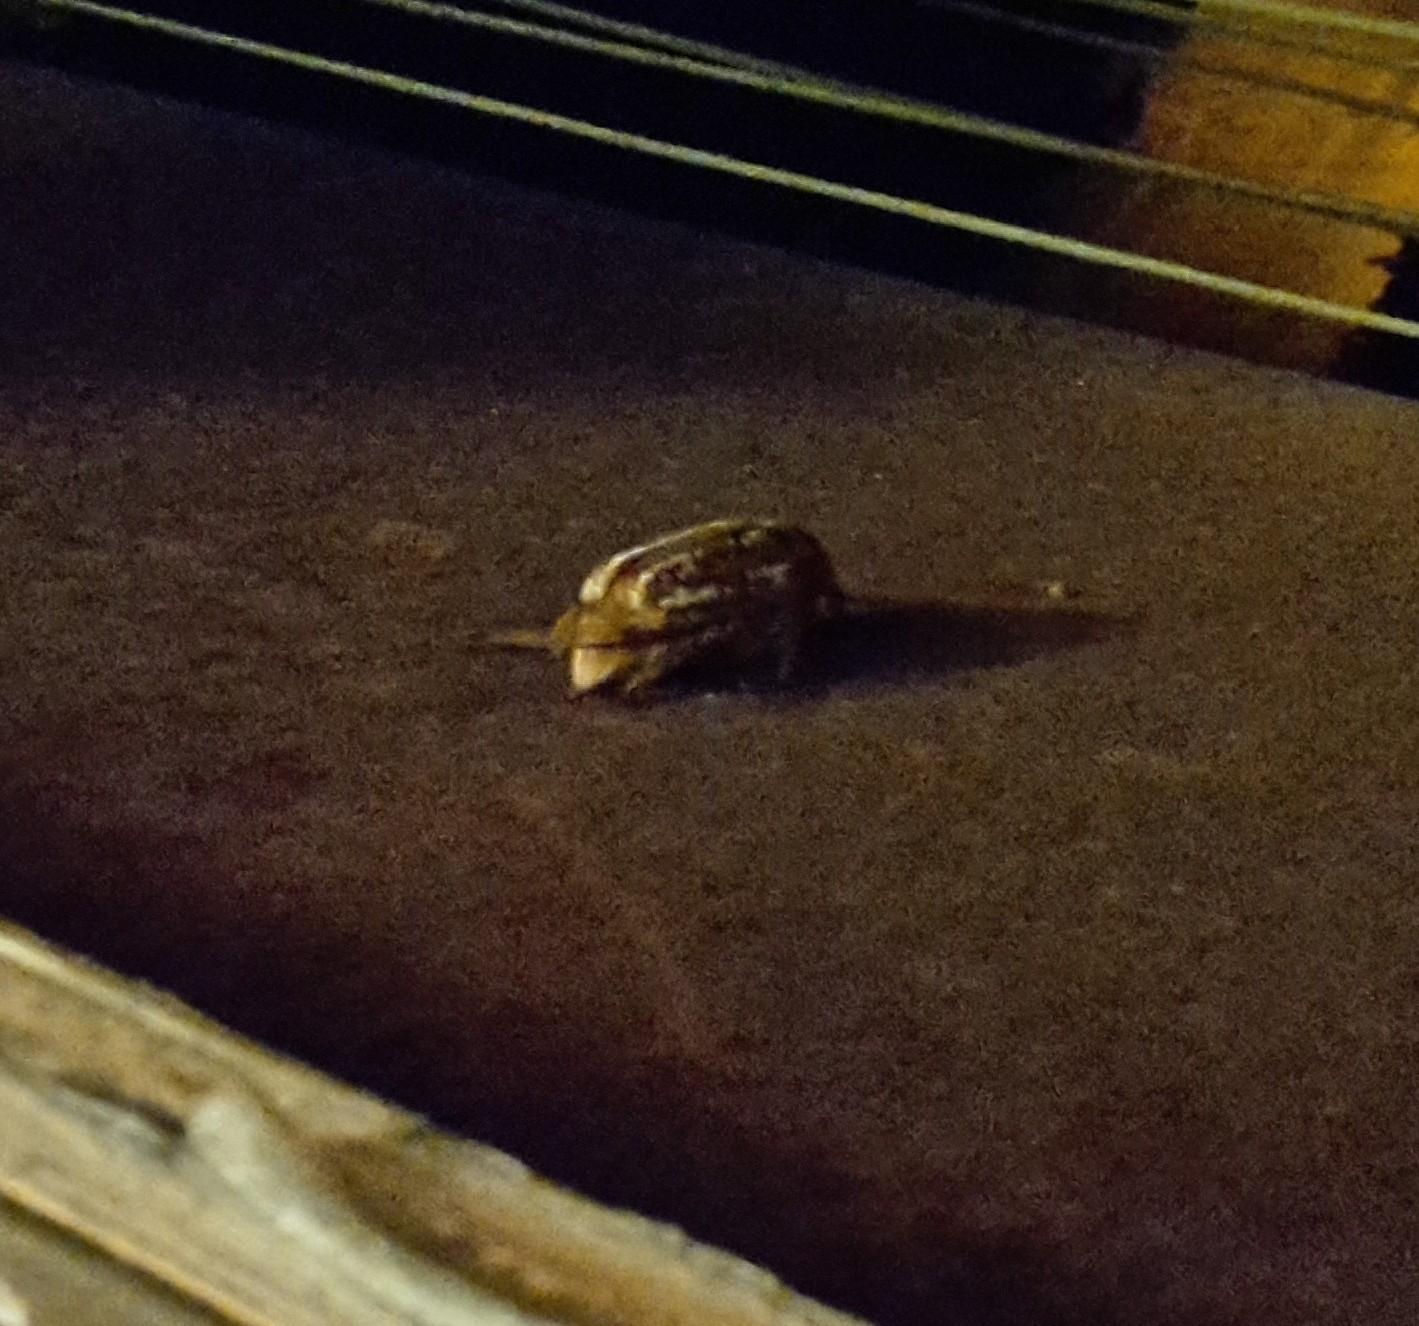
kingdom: Animalia
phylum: Arthropoda
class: Insecta
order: Coleoptera
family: Scarabaeidae
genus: Anoxia
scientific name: Anoxia orientalis
